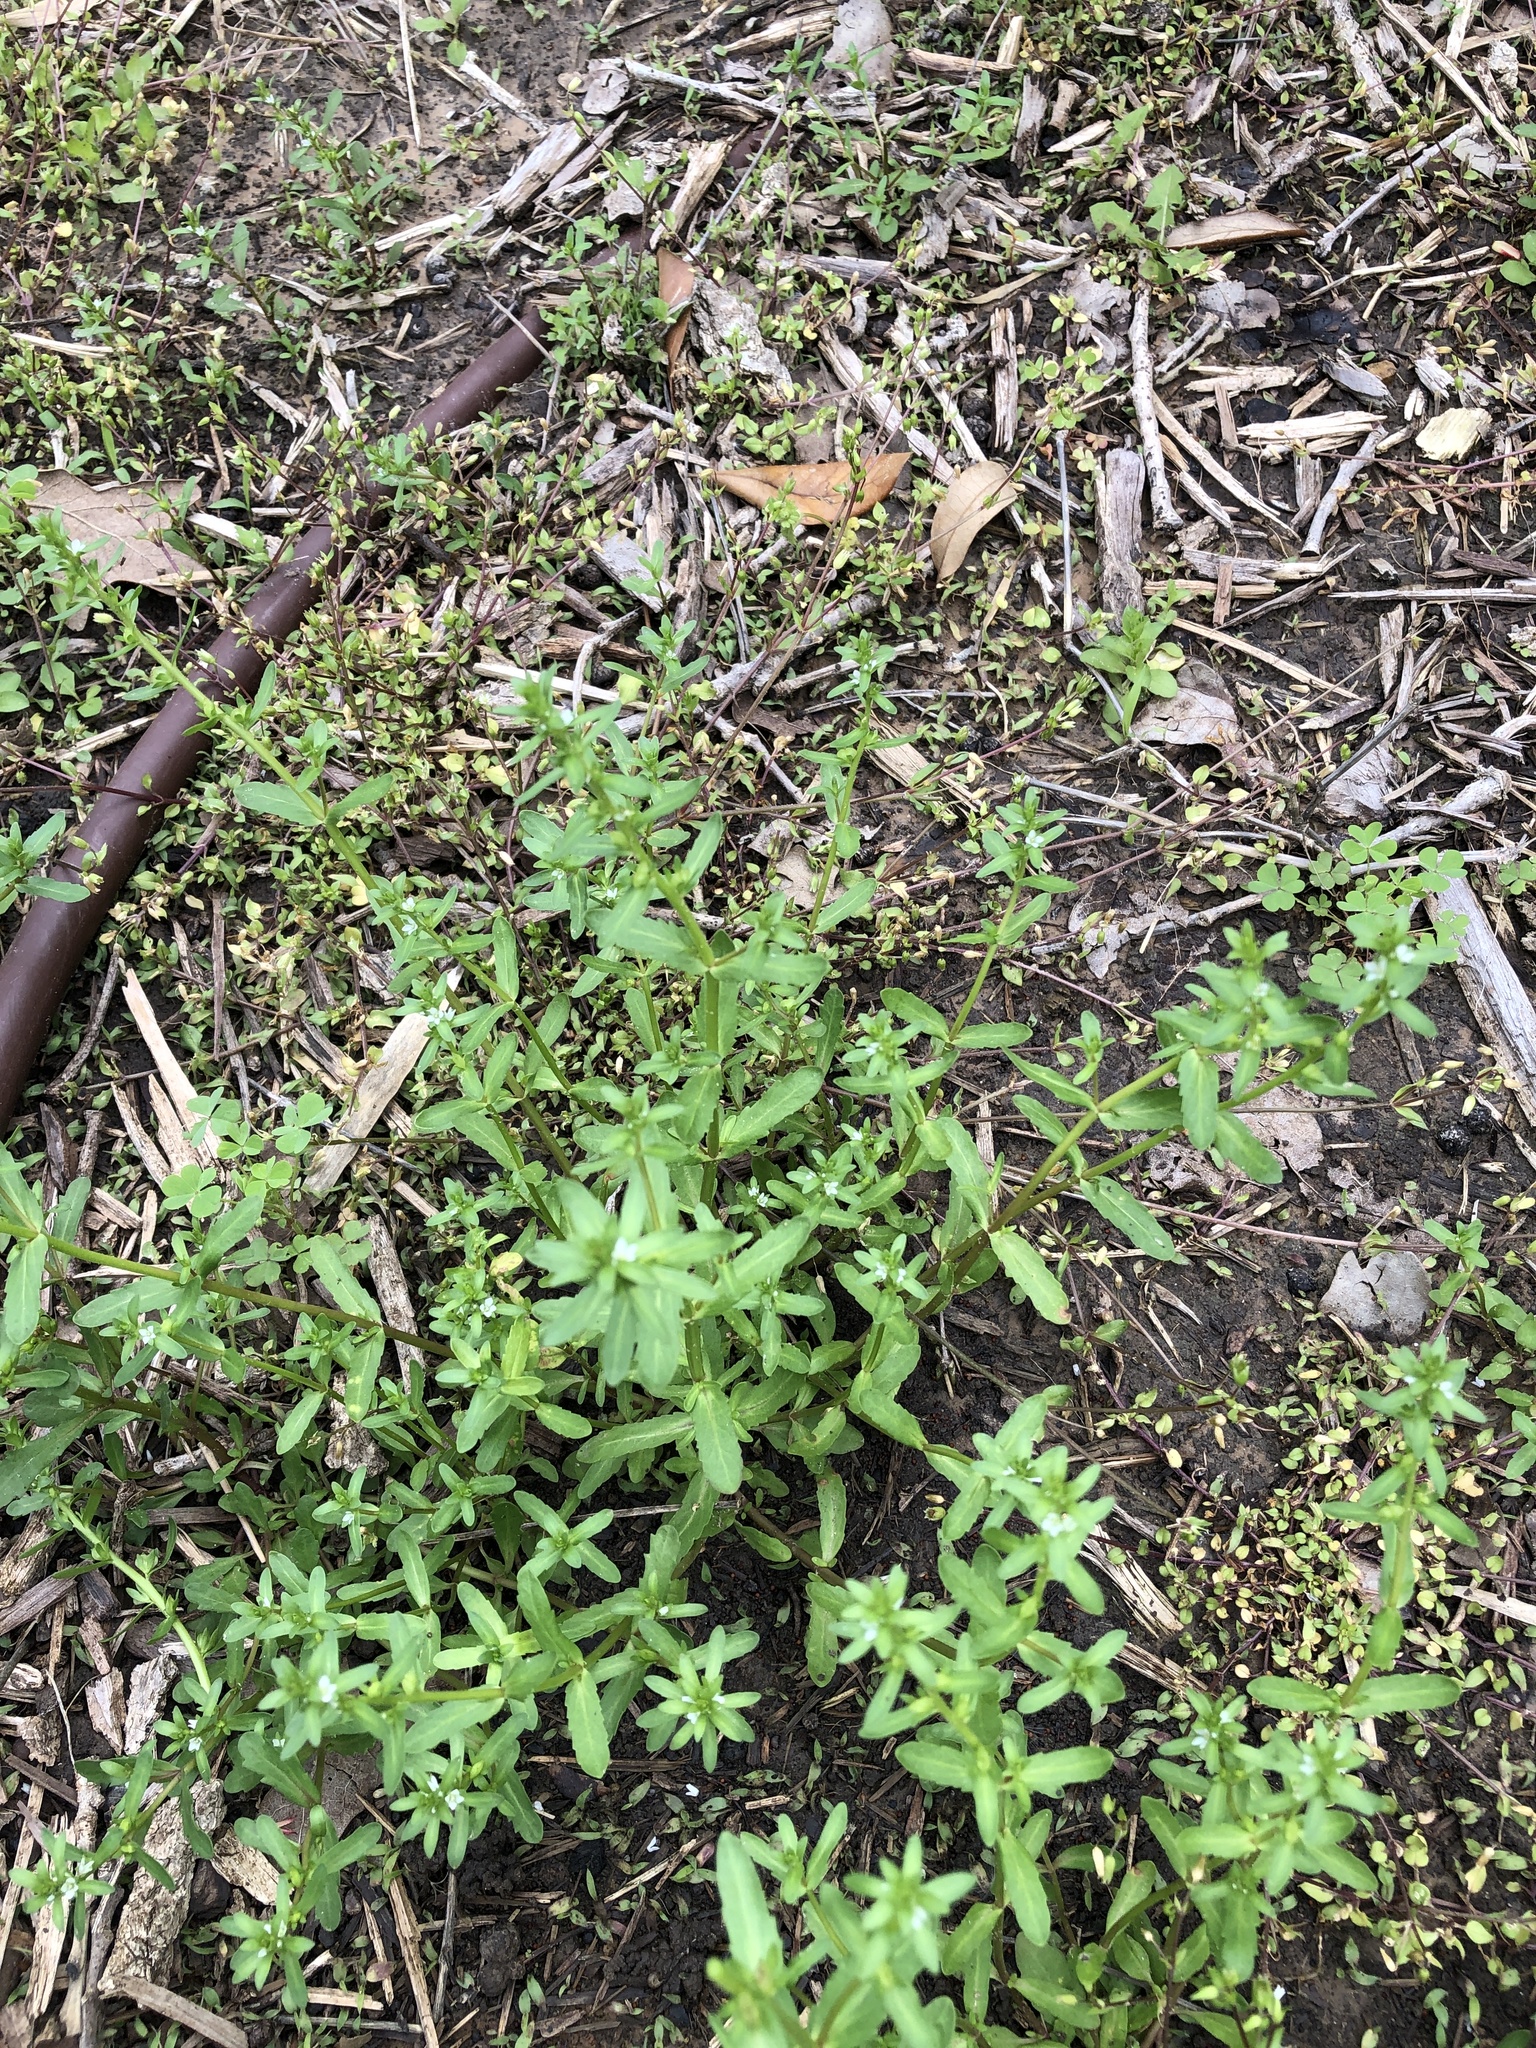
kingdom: Plantae
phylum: Tracheophyta
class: Magnoliopsida
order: Lamiales
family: Plantaginaceae
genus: Veronica
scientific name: Veronica peregrina
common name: Neckweed
